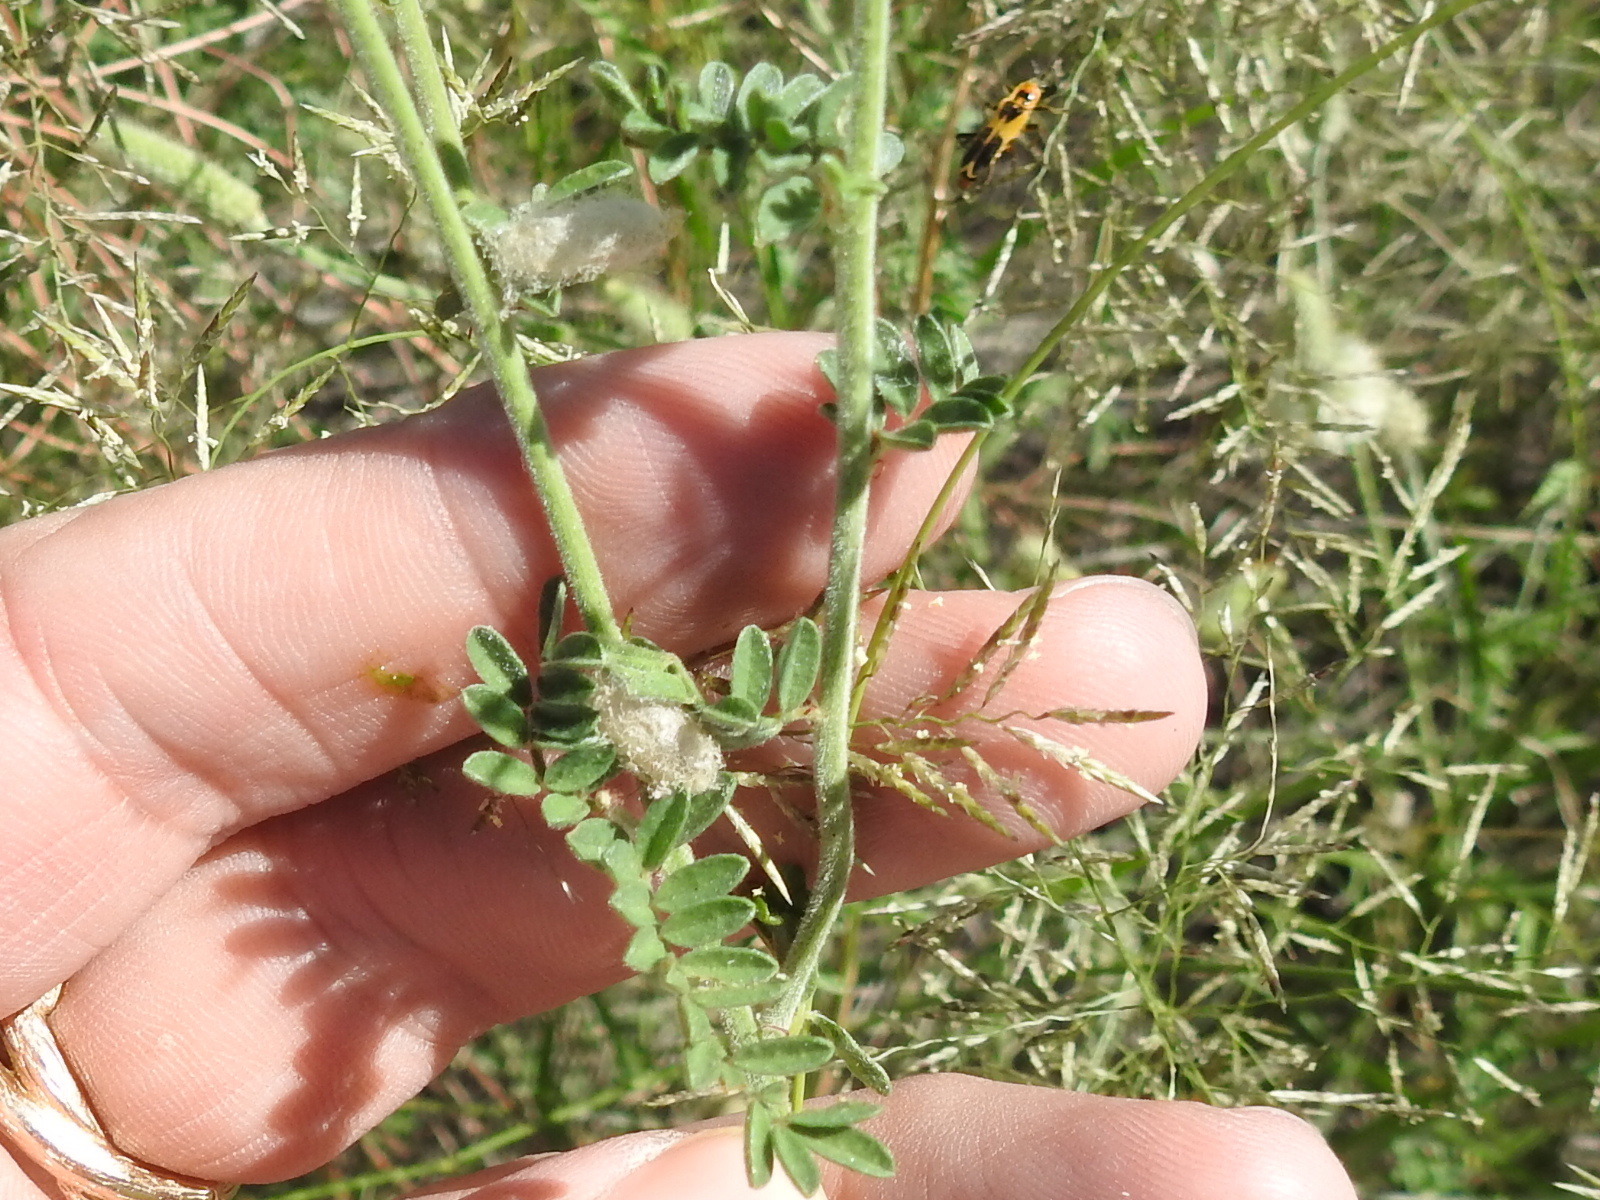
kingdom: Plantae
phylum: Tracheophyta
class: Magnoliopsida
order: Fabales
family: Fabaceae
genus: Dalea
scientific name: Dalea albiflora
